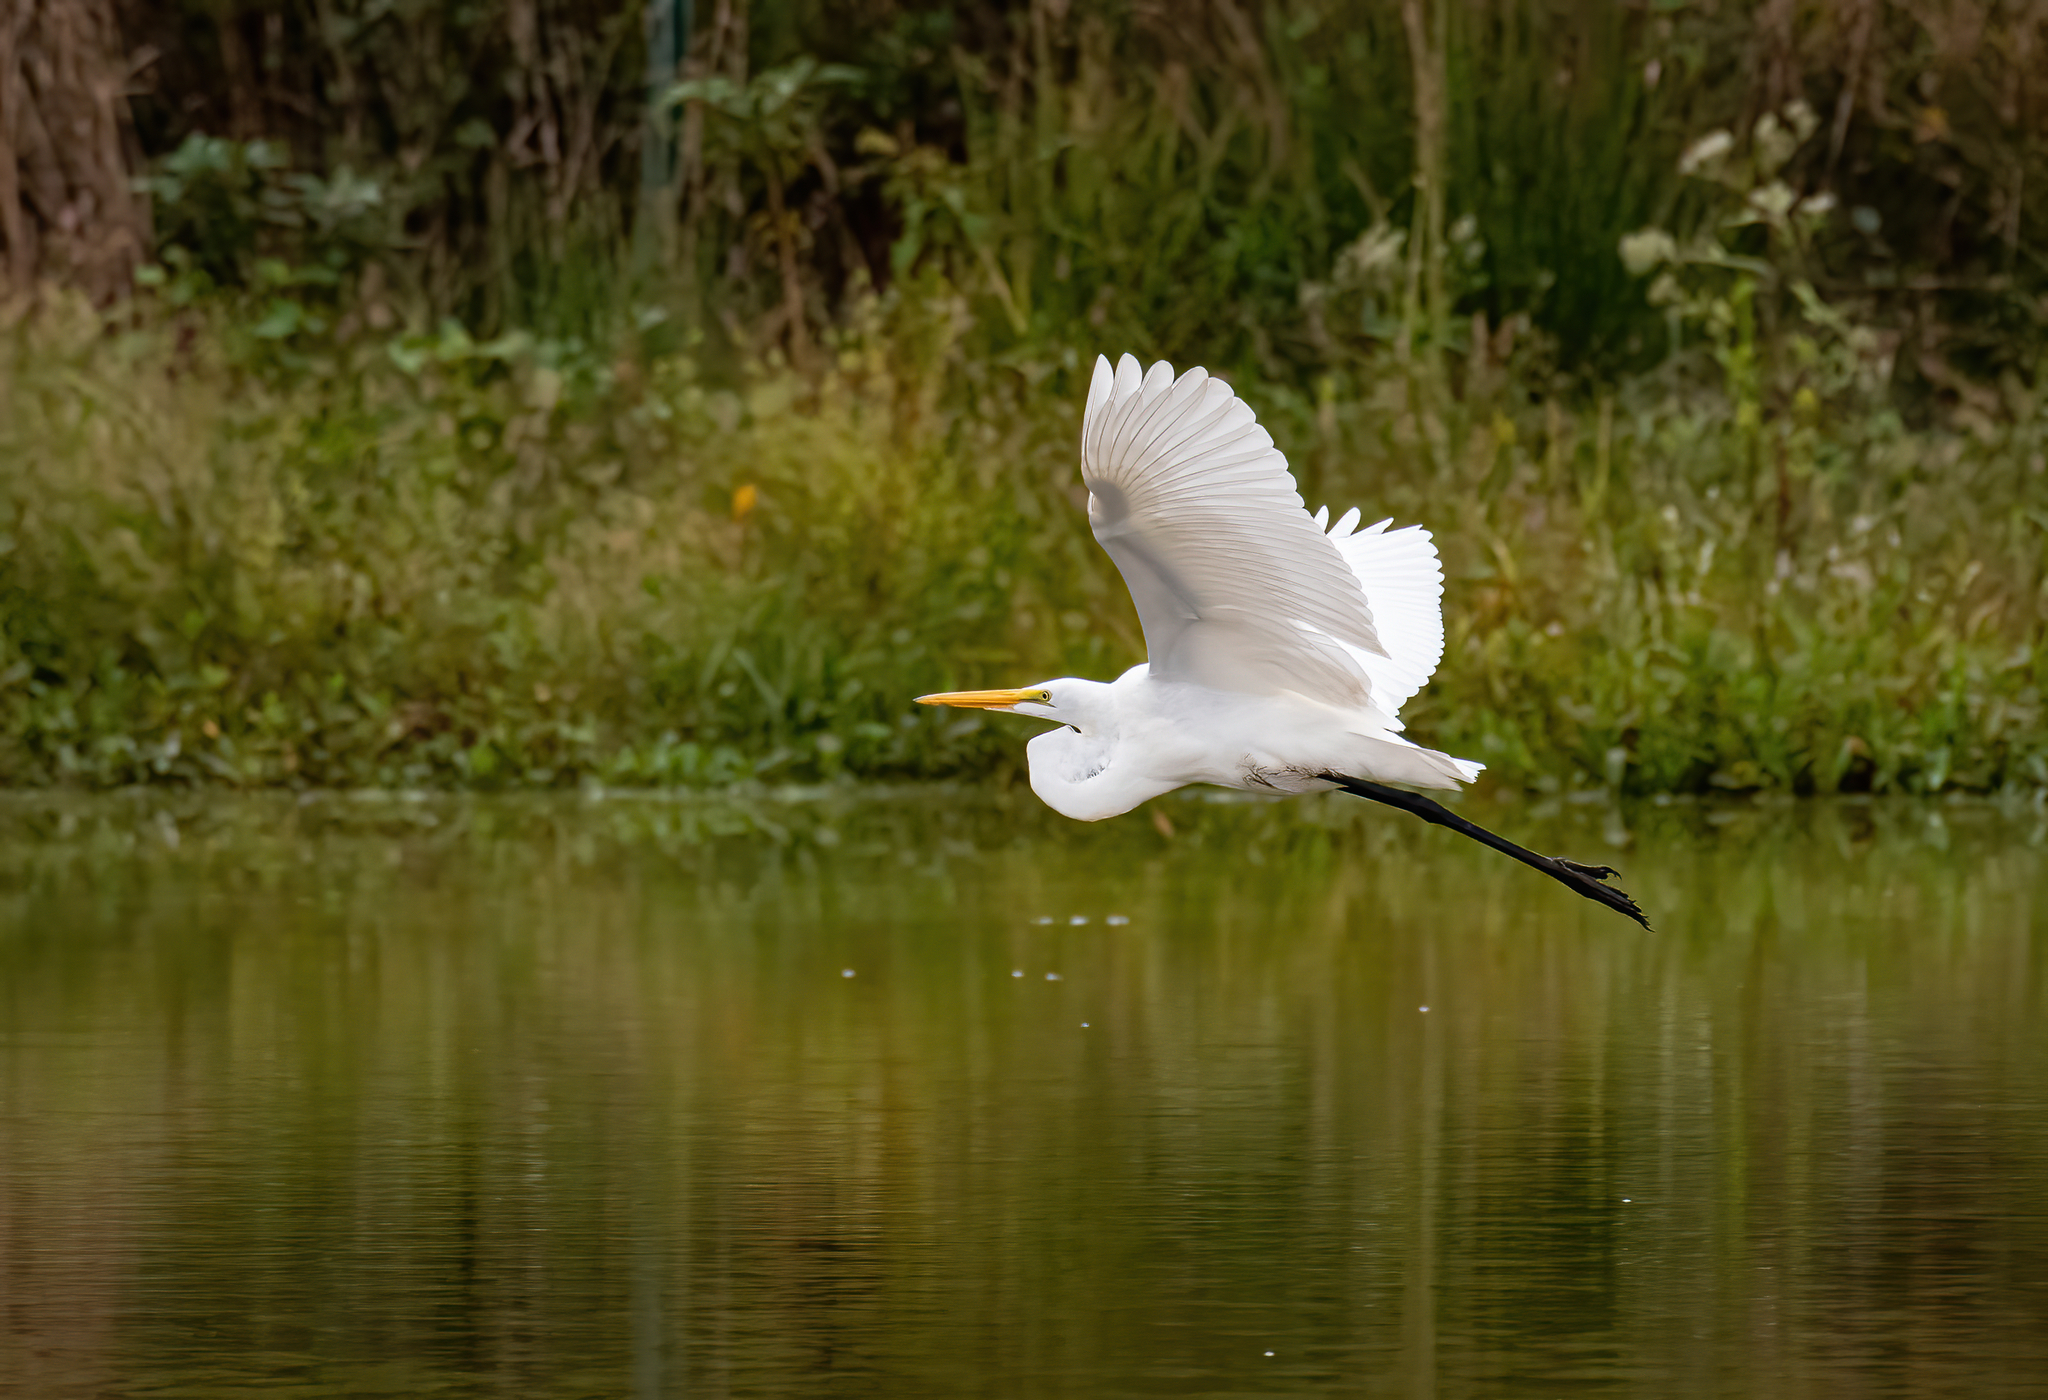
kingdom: Animalia
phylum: Chordata
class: Aves
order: Pelecaniformes
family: Ardeidae
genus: Ardea
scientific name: Ardea alba
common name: Great egret
